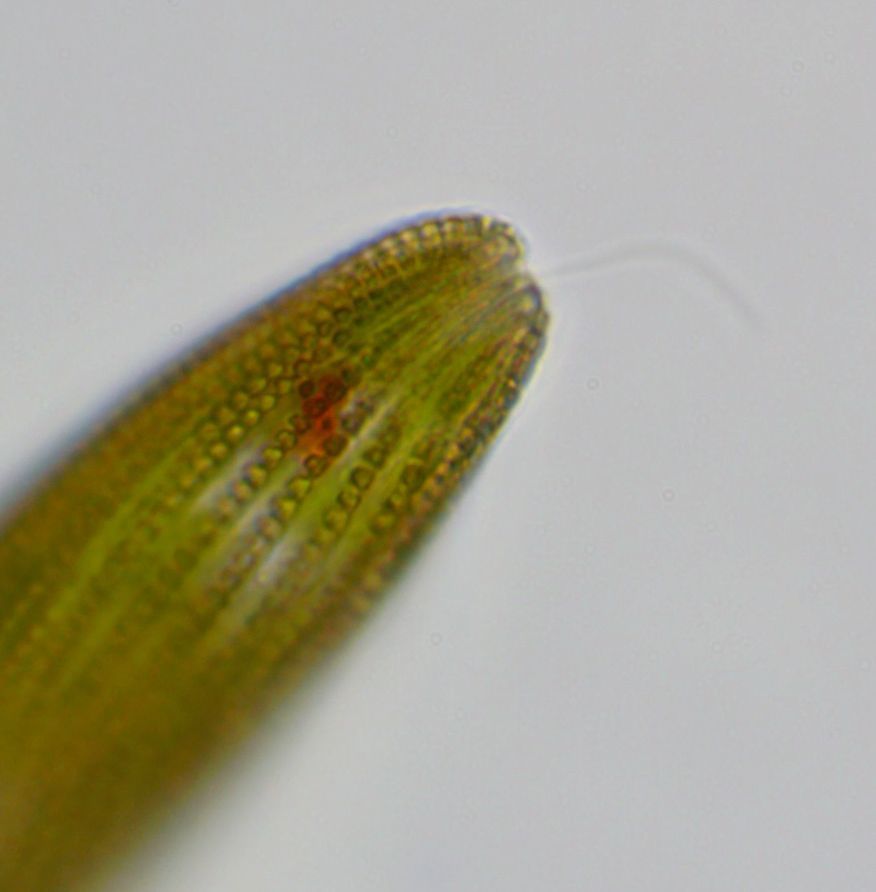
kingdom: Protozoa
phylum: Euglenozoa
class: Euglenoidea
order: Euglenida
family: Phacidae
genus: Lepocinclis
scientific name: Lepocinclis fusca
